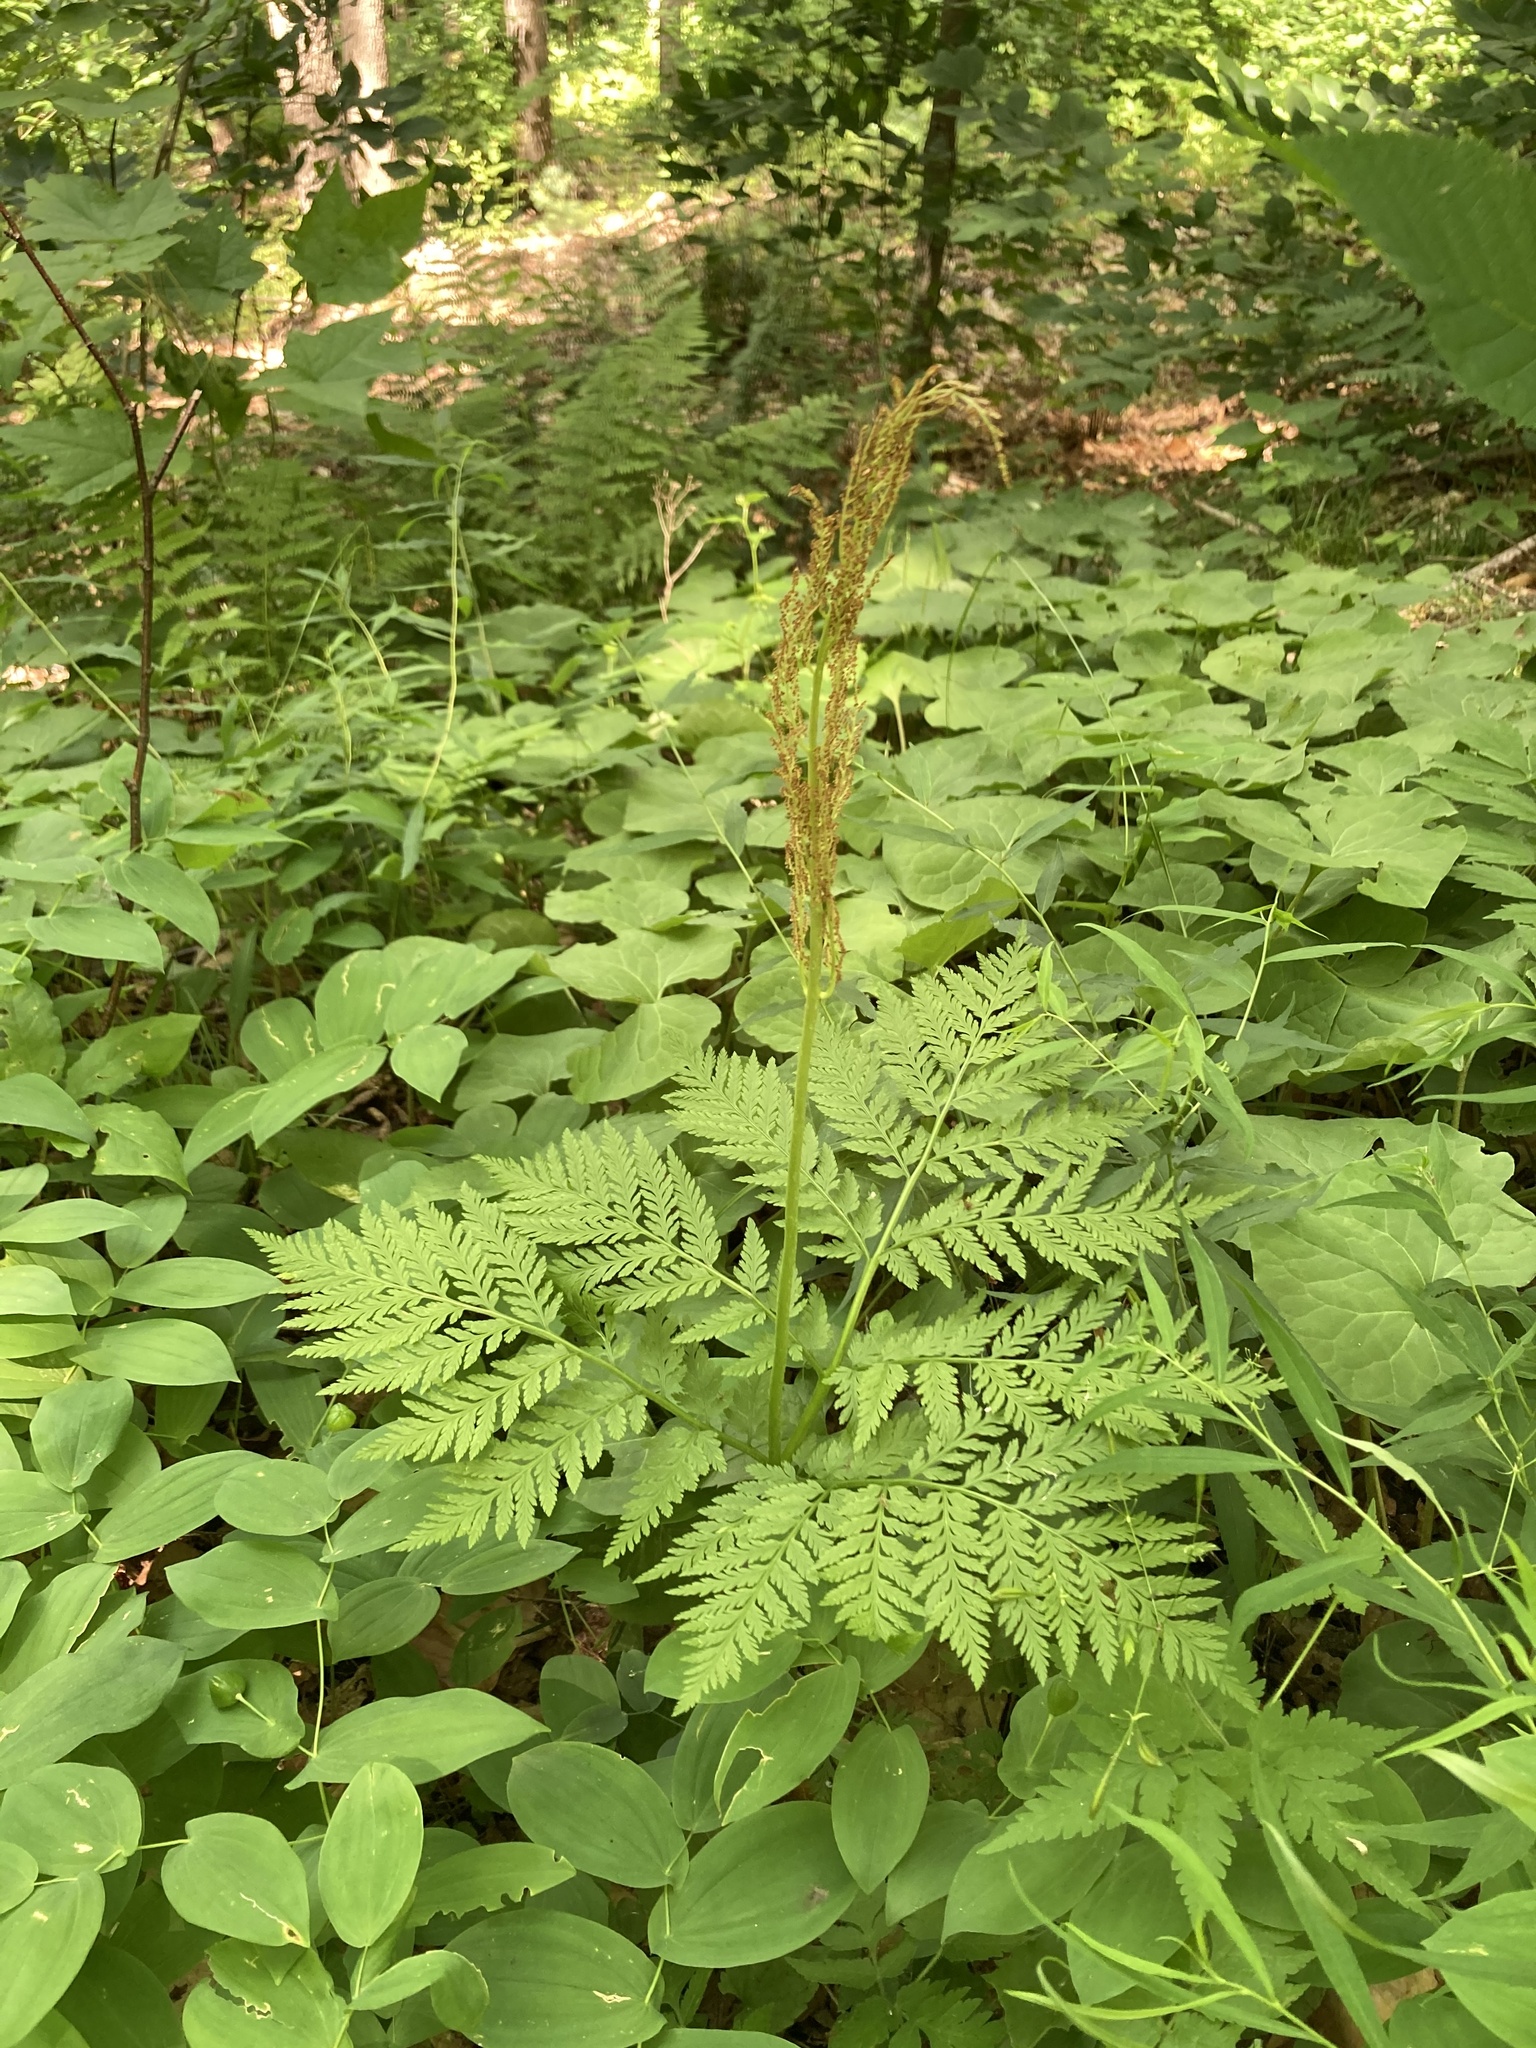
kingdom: Plantae
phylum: Tracheophyta
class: Polypodiopsida
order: Ophioglossales
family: Ophioglossaceae
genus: Botrypus
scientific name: Botrypus virginianus
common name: Common grapefern
